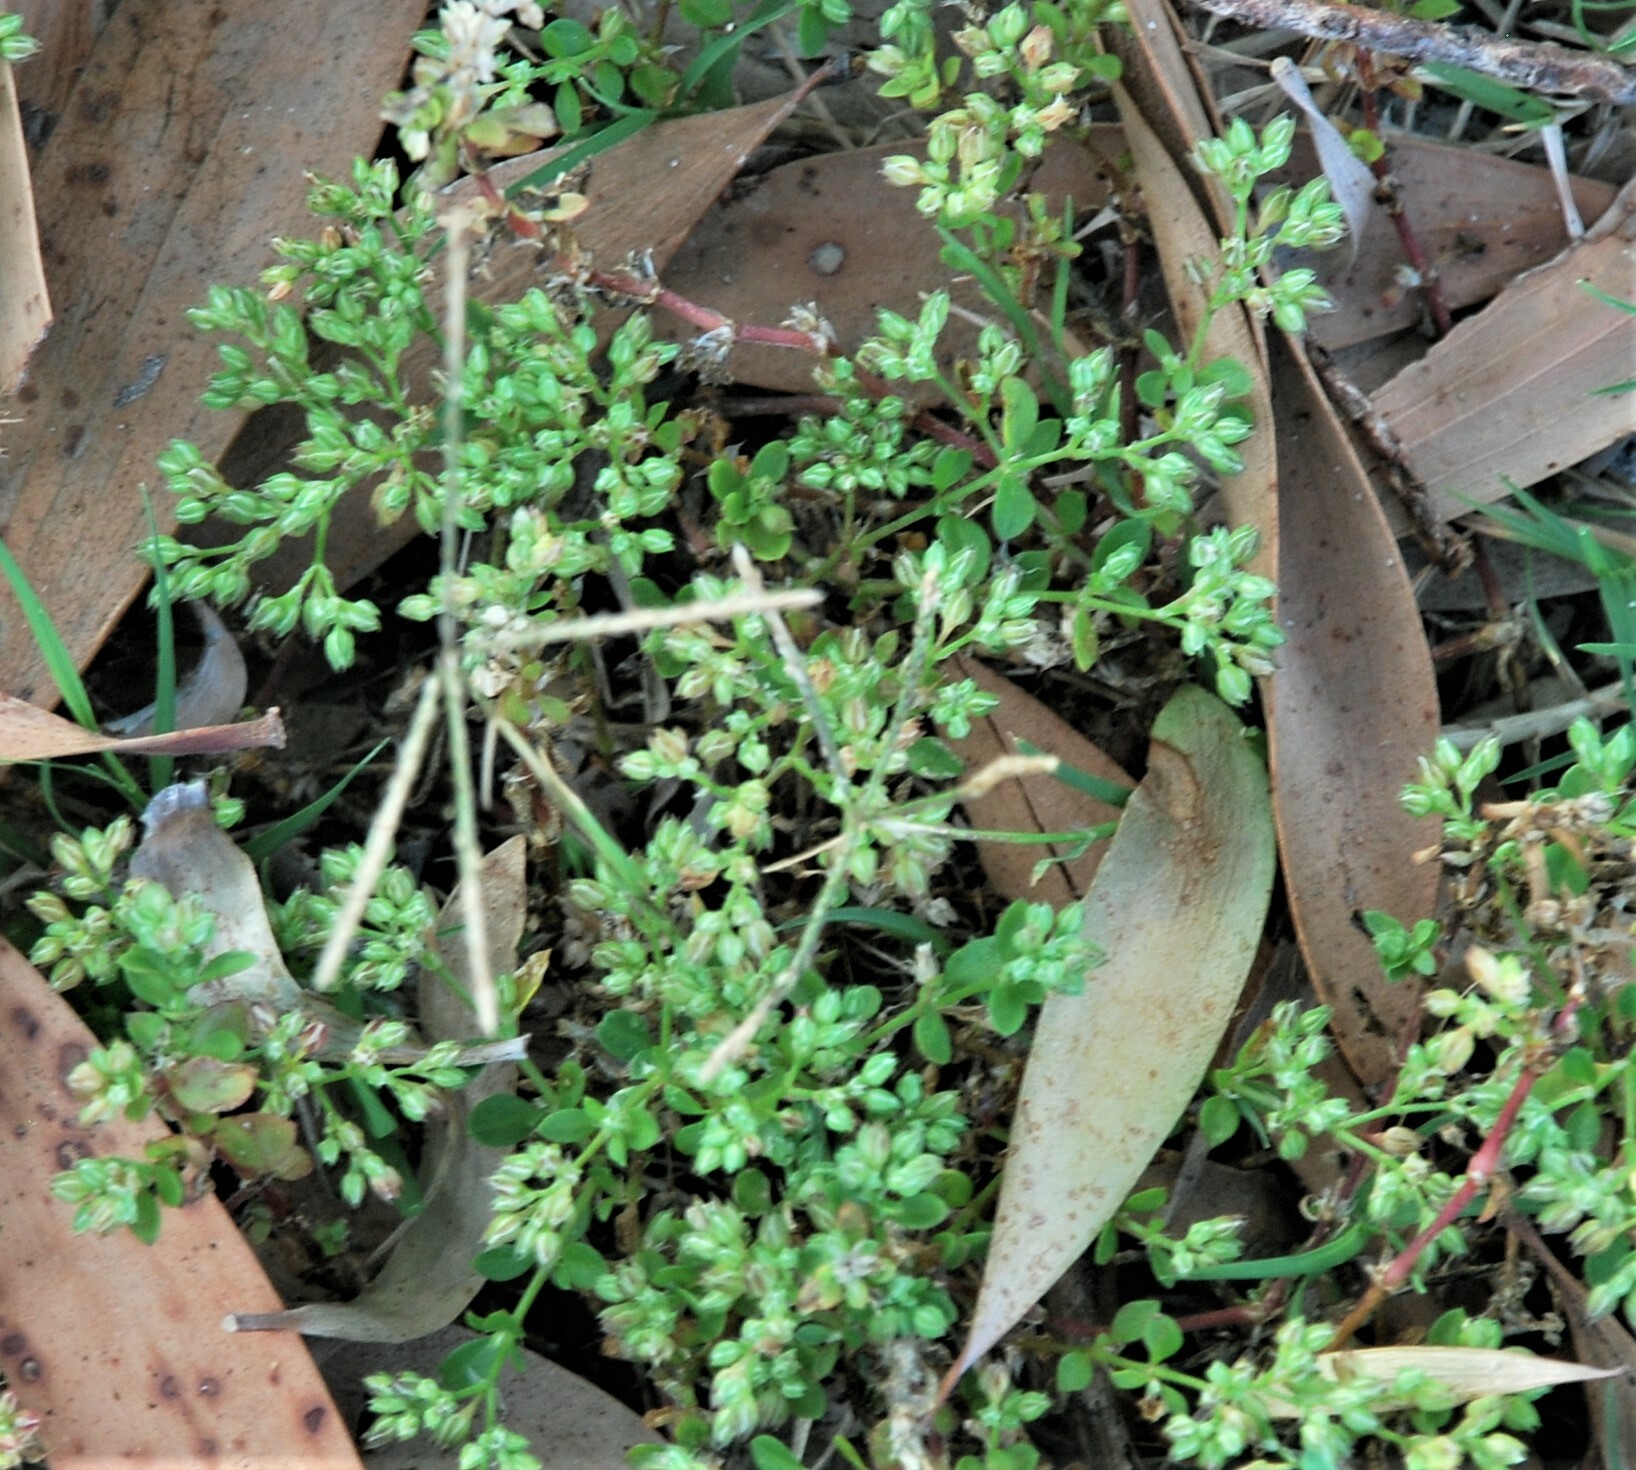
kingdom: Plantae
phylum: Tracheophyta
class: Magnoliopsida
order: Caryophyllales
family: Caryophyllaceae
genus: Polycarpon
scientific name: Polycarpon tetraphyllum
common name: Four-leaved all-seed
